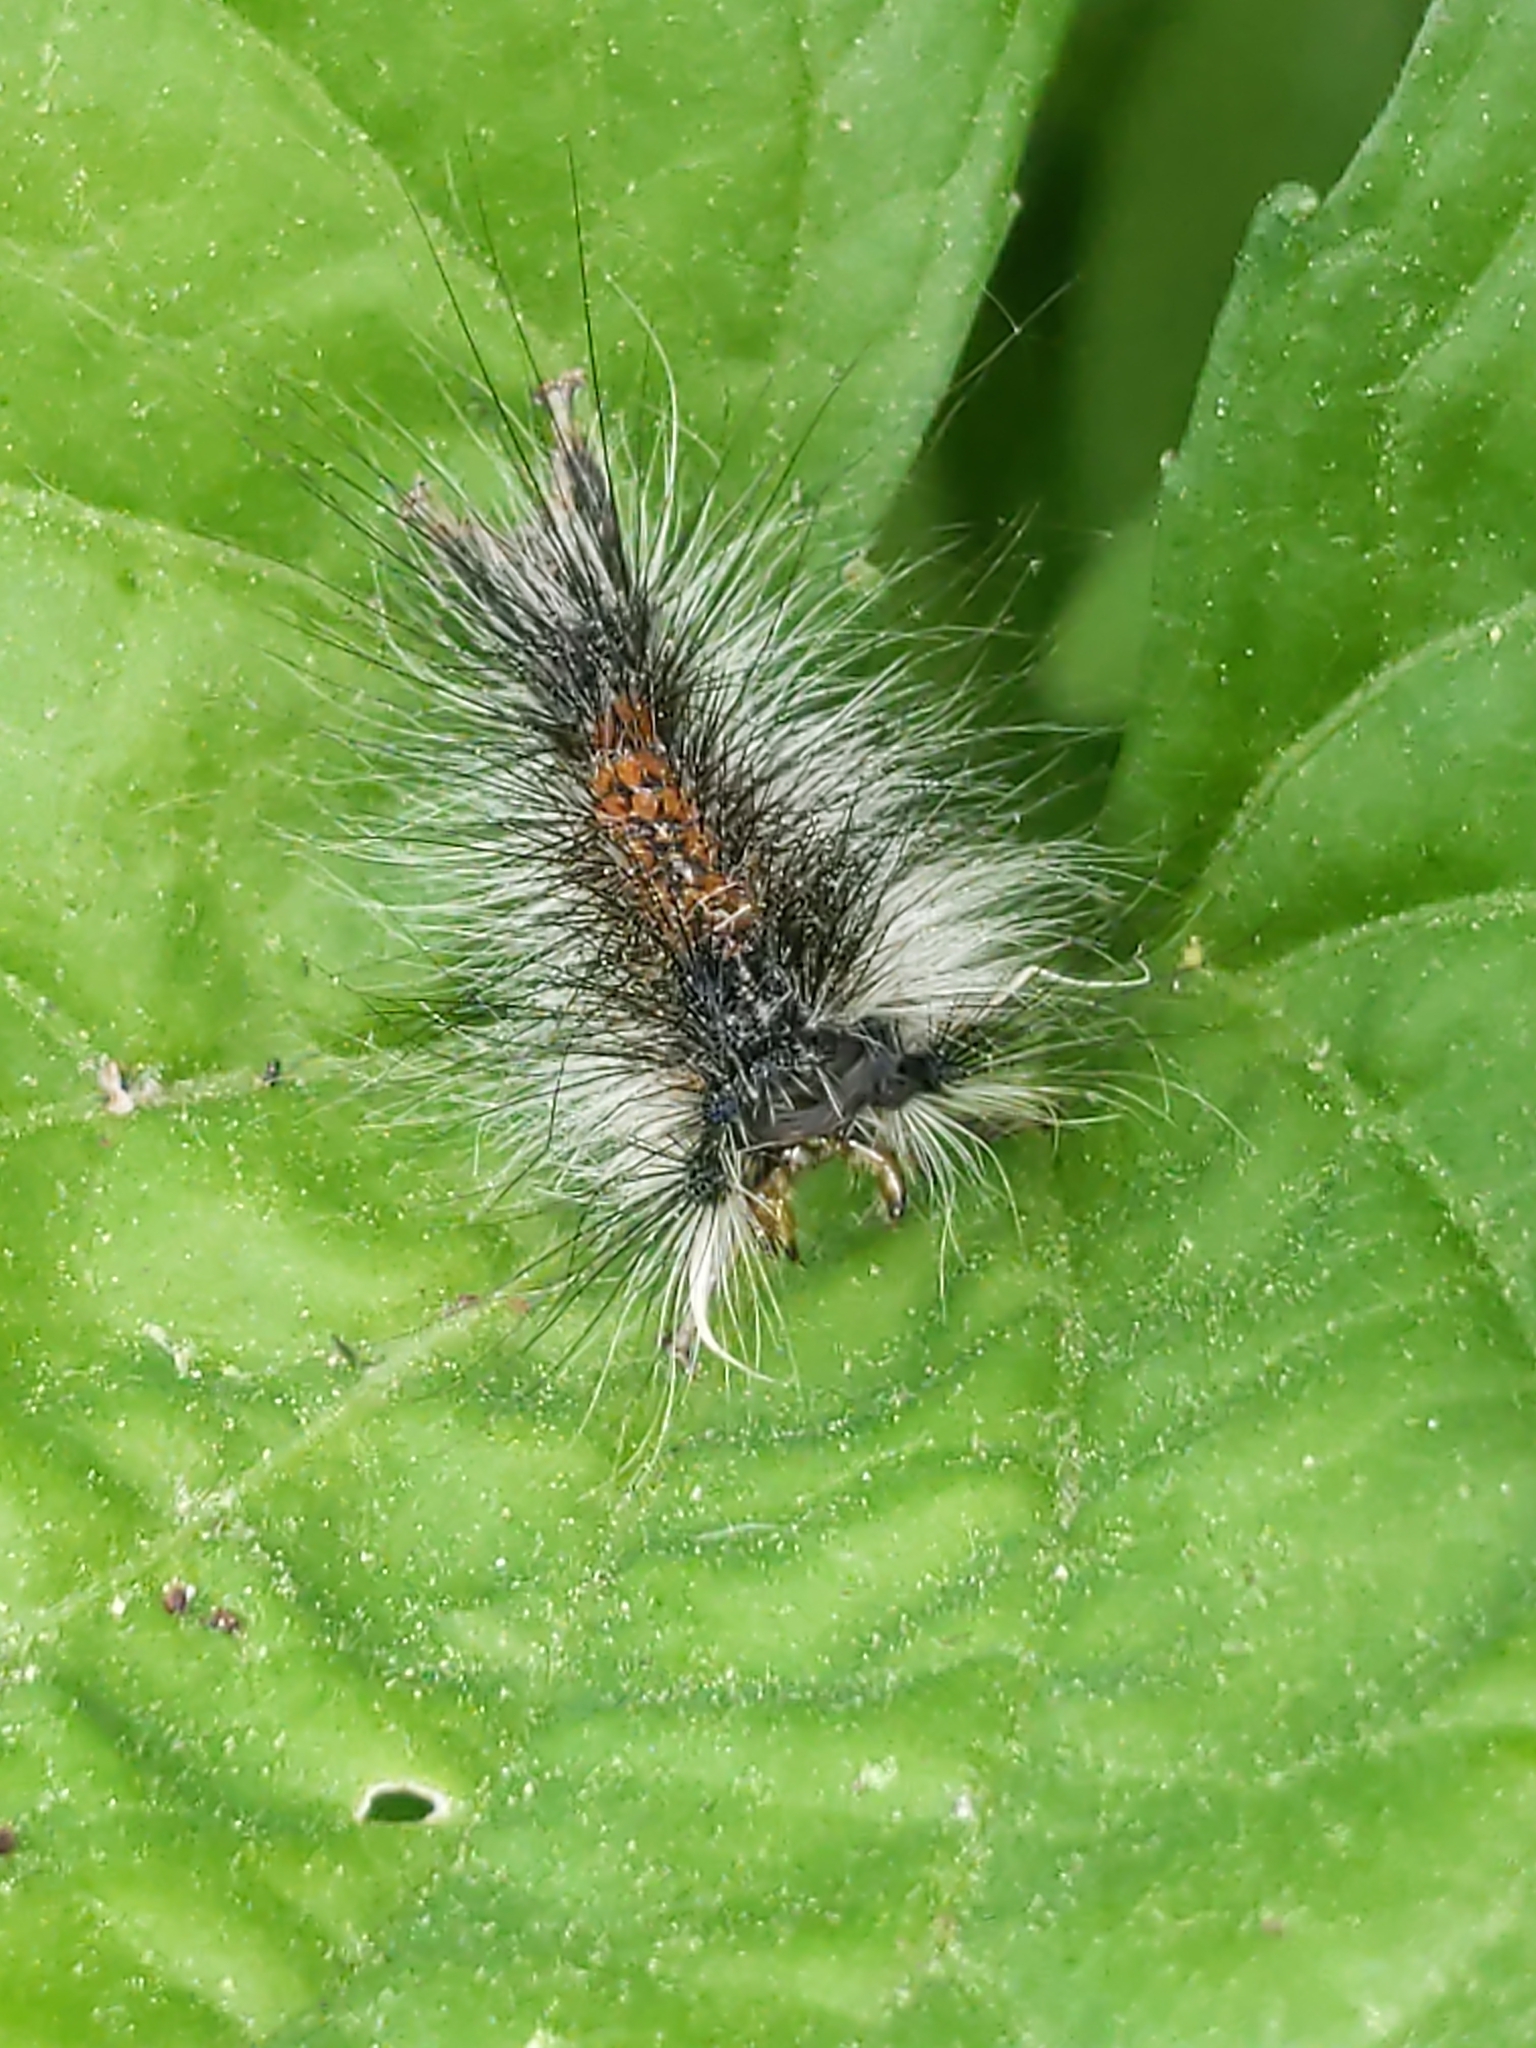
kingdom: Animalia
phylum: Arthropoda
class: Insecta
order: Lepidoptera
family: Erebidae
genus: Lymantria
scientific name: Lymantria dispar
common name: Gypsy moth
